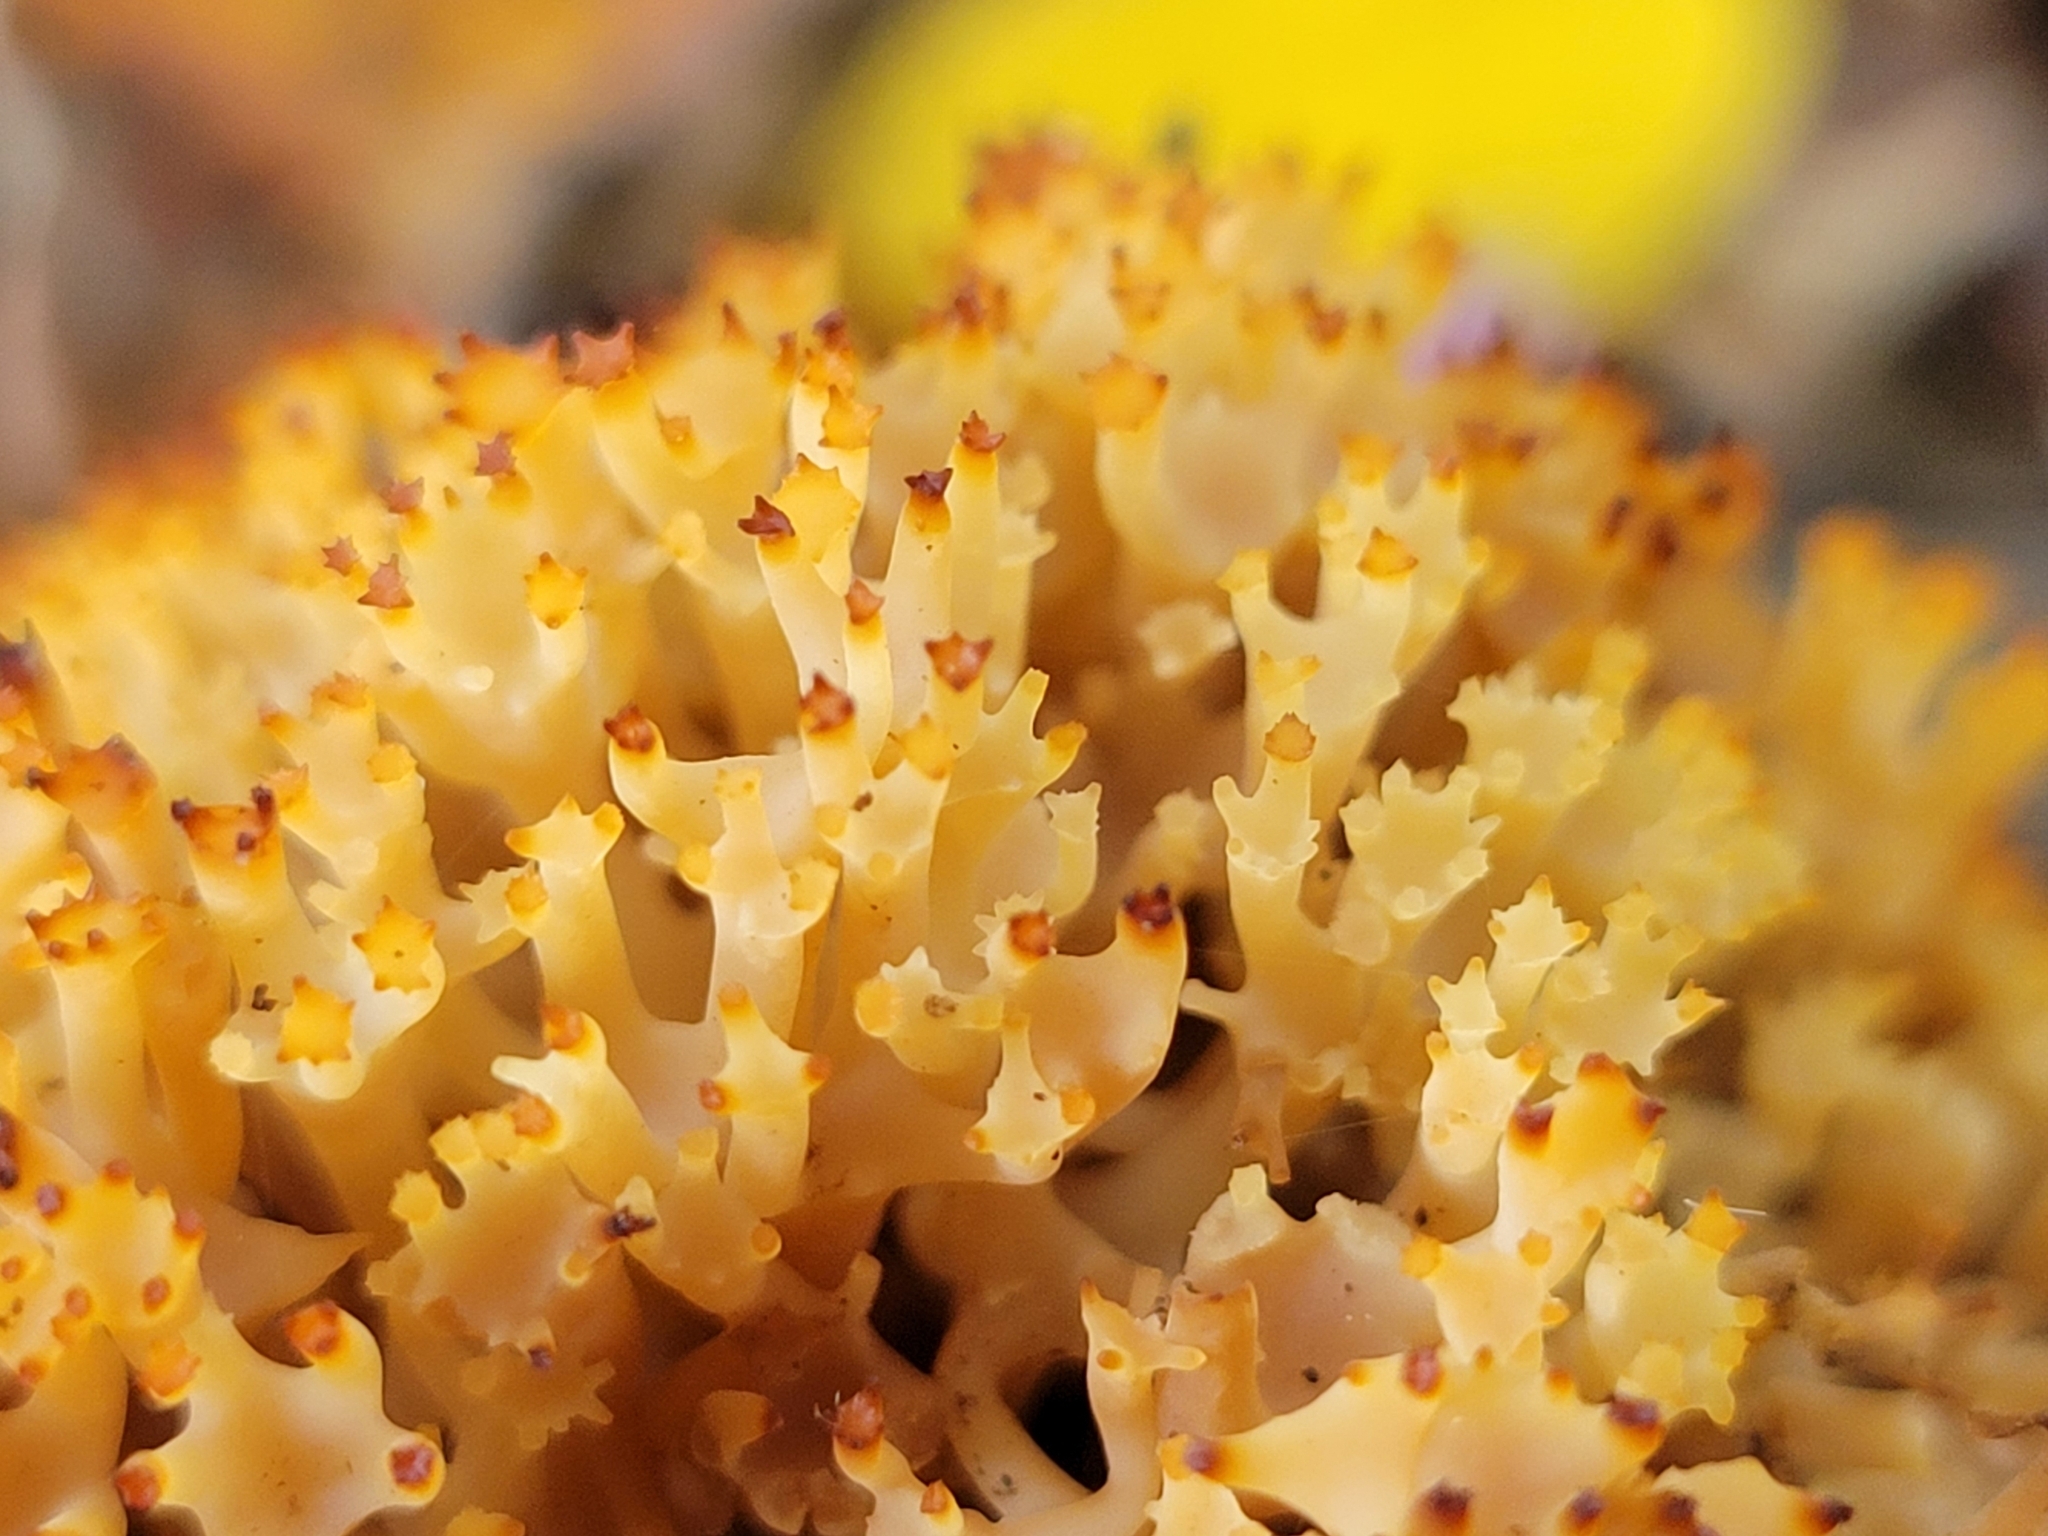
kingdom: Fungi
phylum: Basidiomycota
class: Agaricomycetes
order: Russulales
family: Auriscalpiaceae
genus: Artomyces
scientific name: Artomyces pyxidatus
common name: Crown-tipped coral fungus
